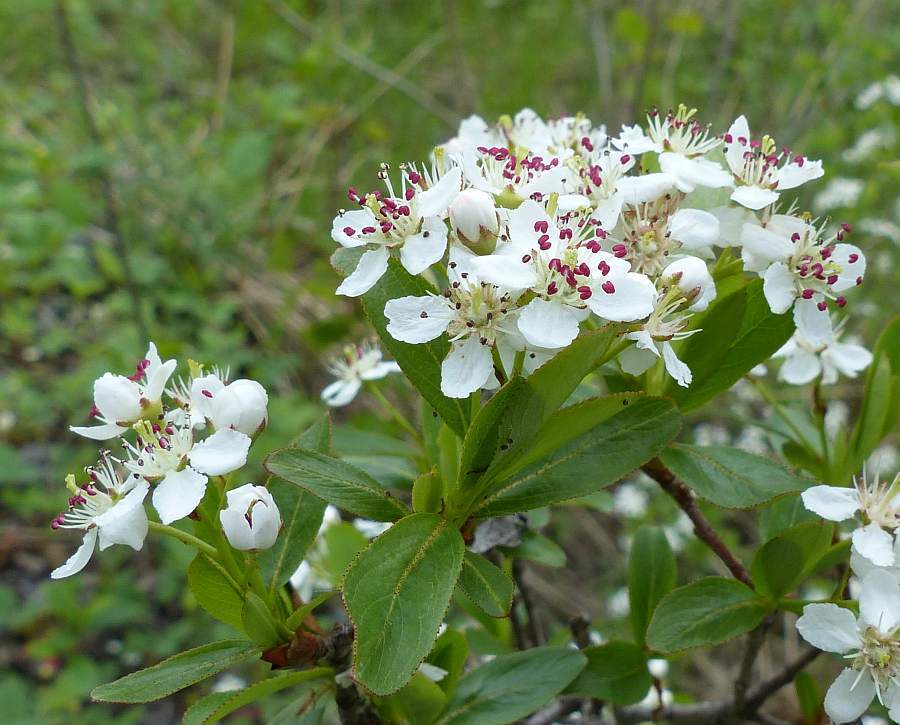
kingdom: Plantae
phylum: Tracheophyta
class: Magnoliopsida
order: Rosales
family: Rosaceae
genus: Aronia
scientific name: Aronia melanocarpa
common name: Black chokeberry
